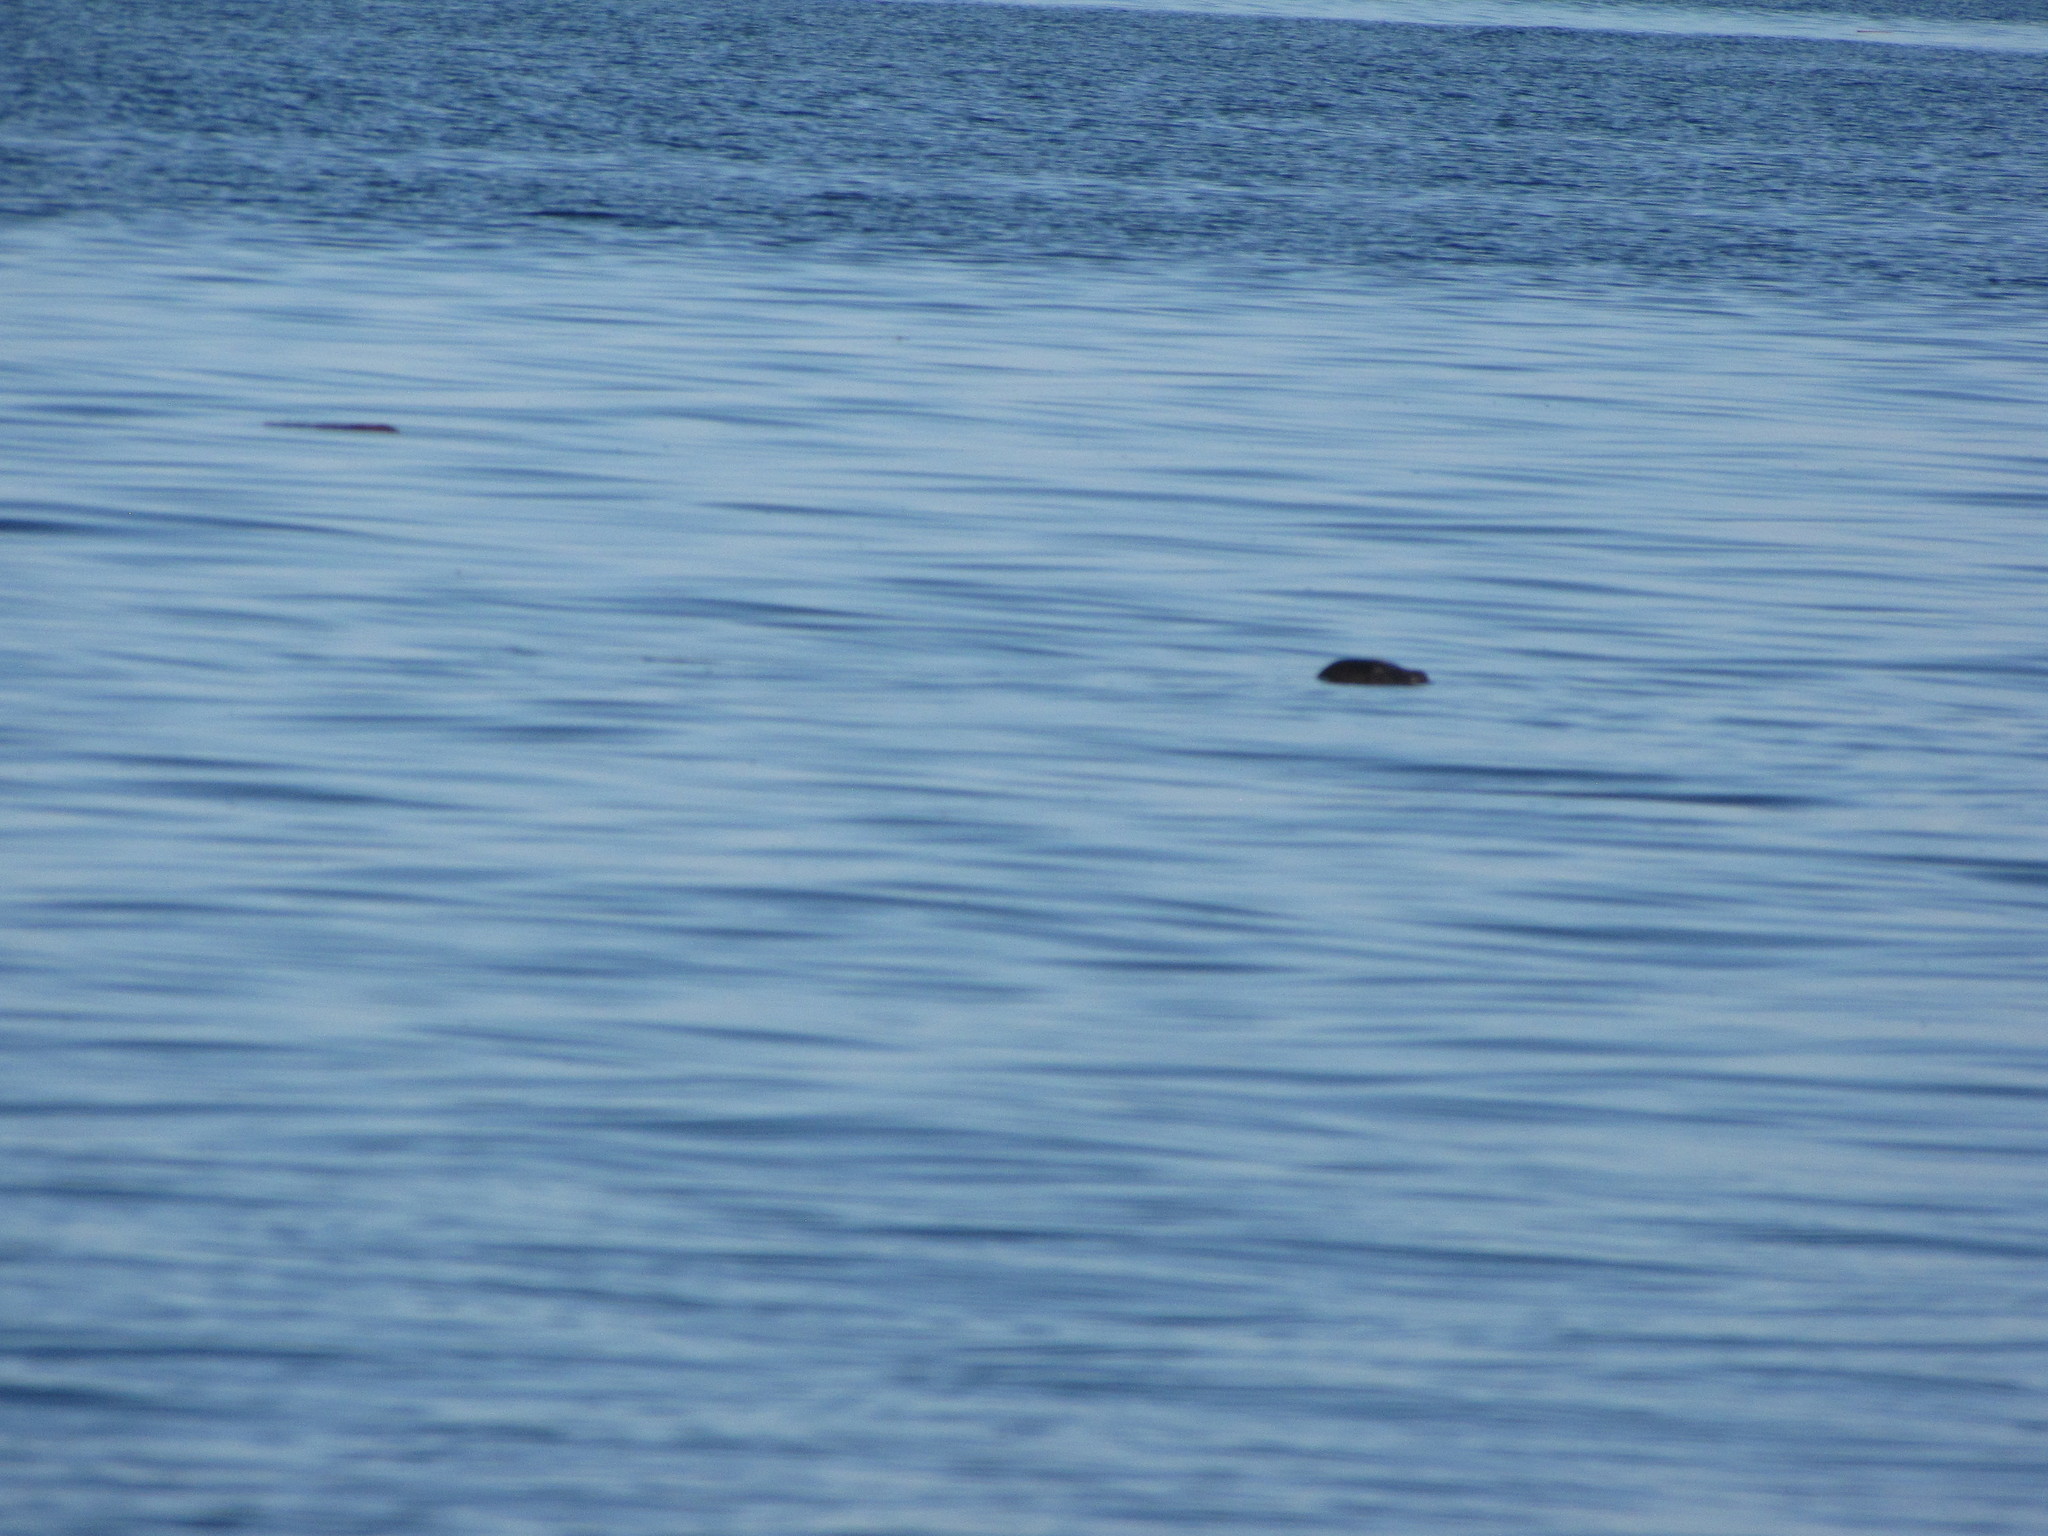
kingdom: Animalia
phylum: Chordata
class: Mammalia
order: Carnivora
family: Phocidae
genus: Phoca
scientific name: Phoca vitulina
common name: Harbor seal
